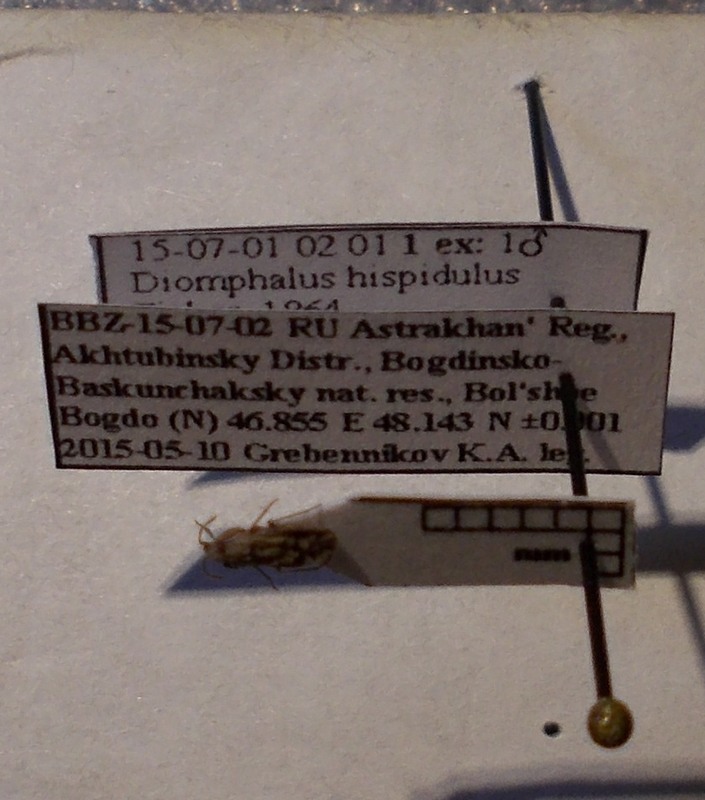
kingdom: Animalia
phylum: Arthropoda
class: Insecta
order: Hemiptera
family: Rhyparochromidae
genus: Diomphalus
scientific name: Diomphalus hispidulus
